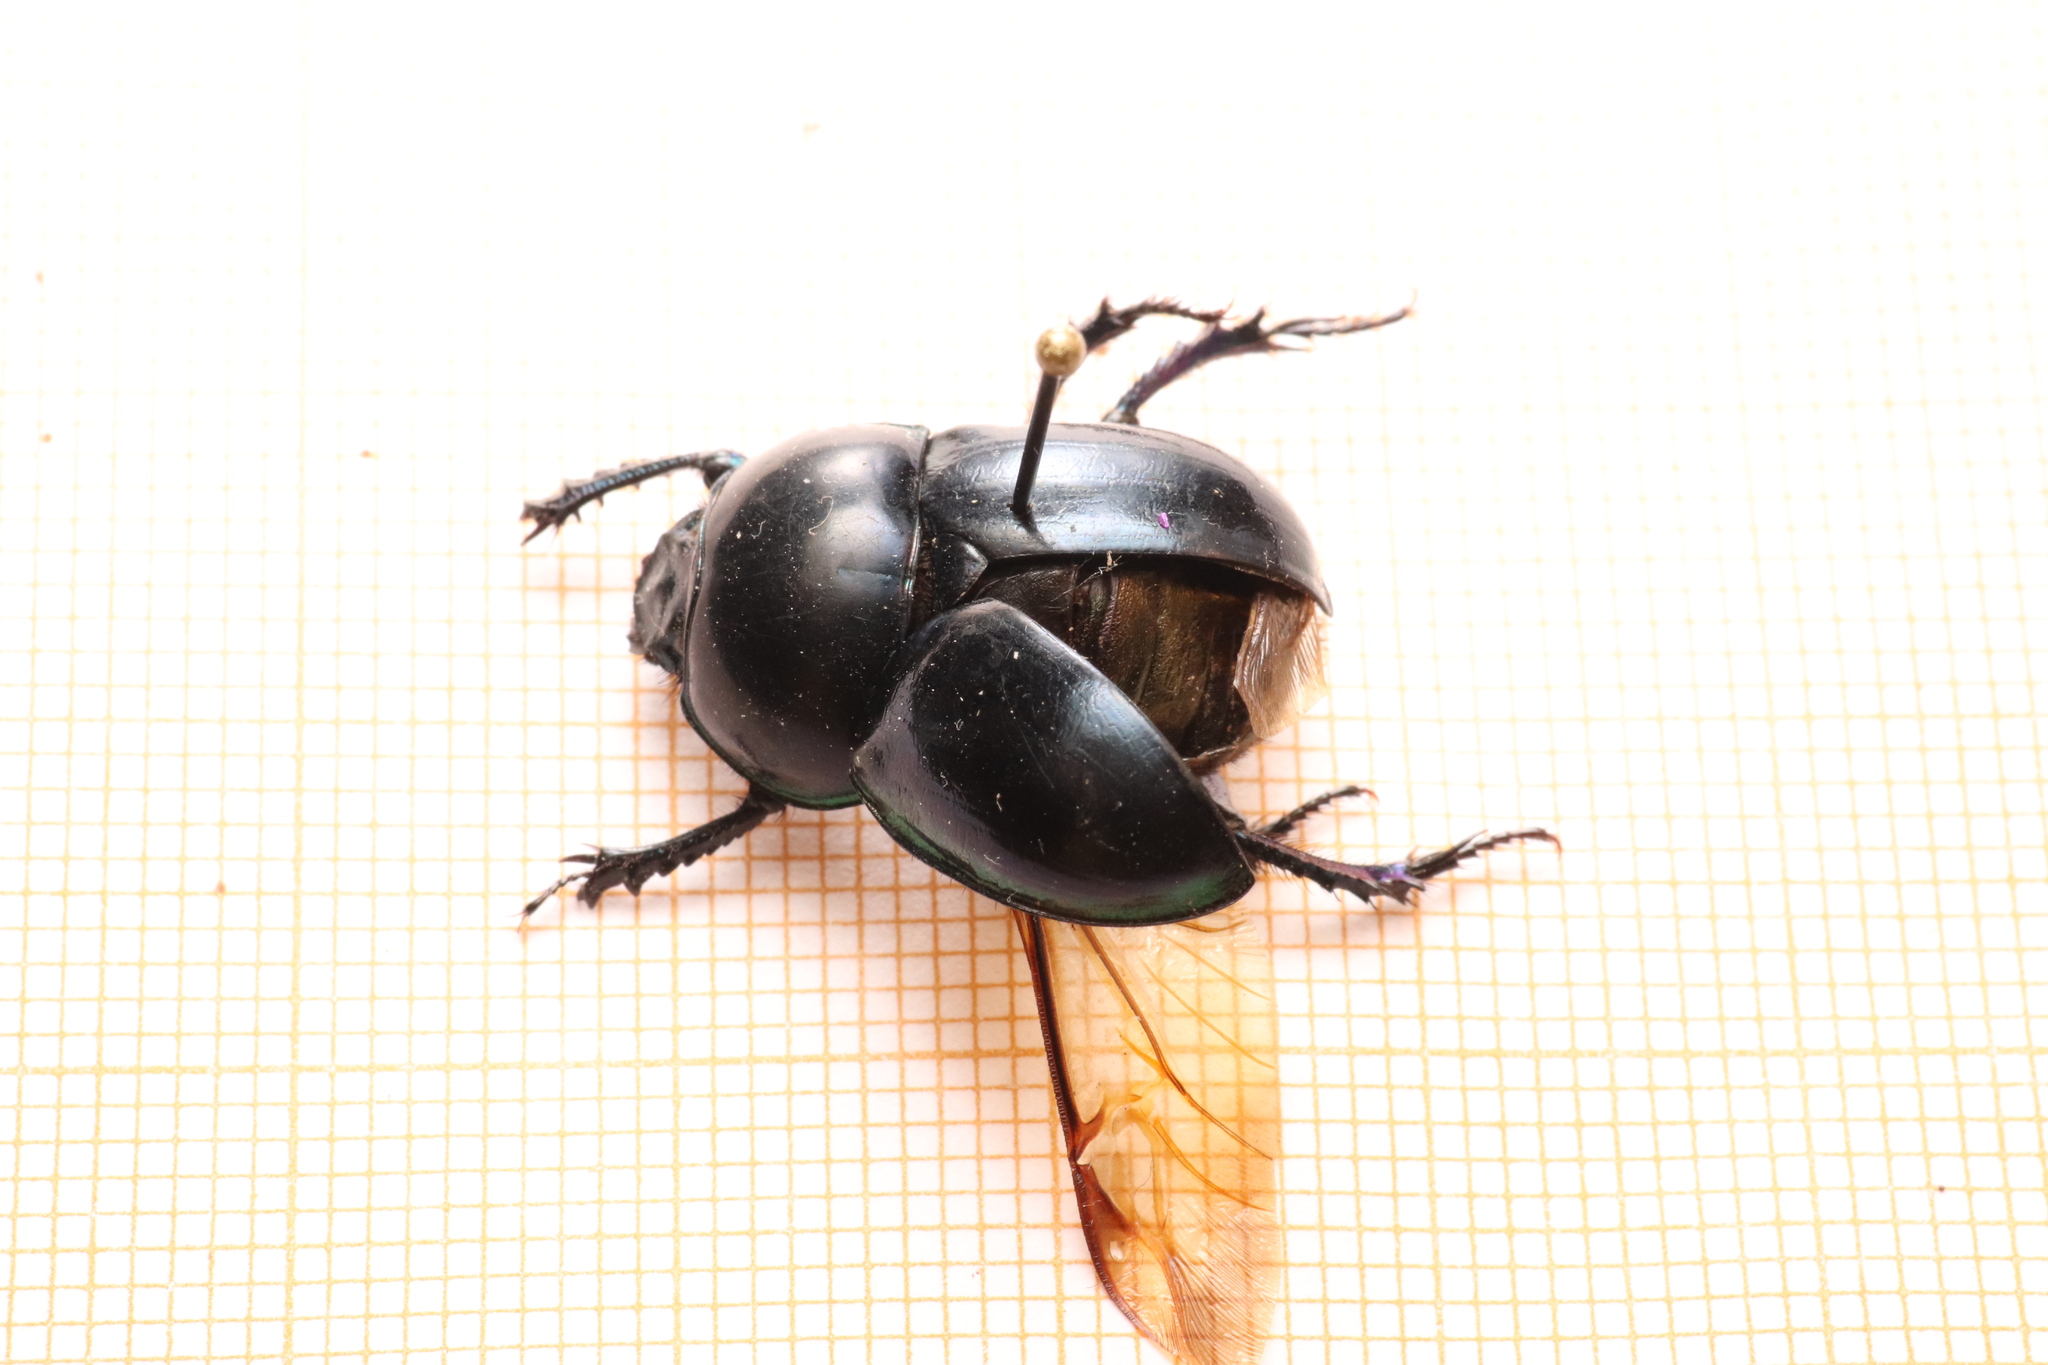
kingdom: Animalia
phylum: Arthropoda
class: Insecta
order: Coleoptera
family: Geotrupidae
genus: Trypocopris
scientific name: Trypocopris pyrenaeus
